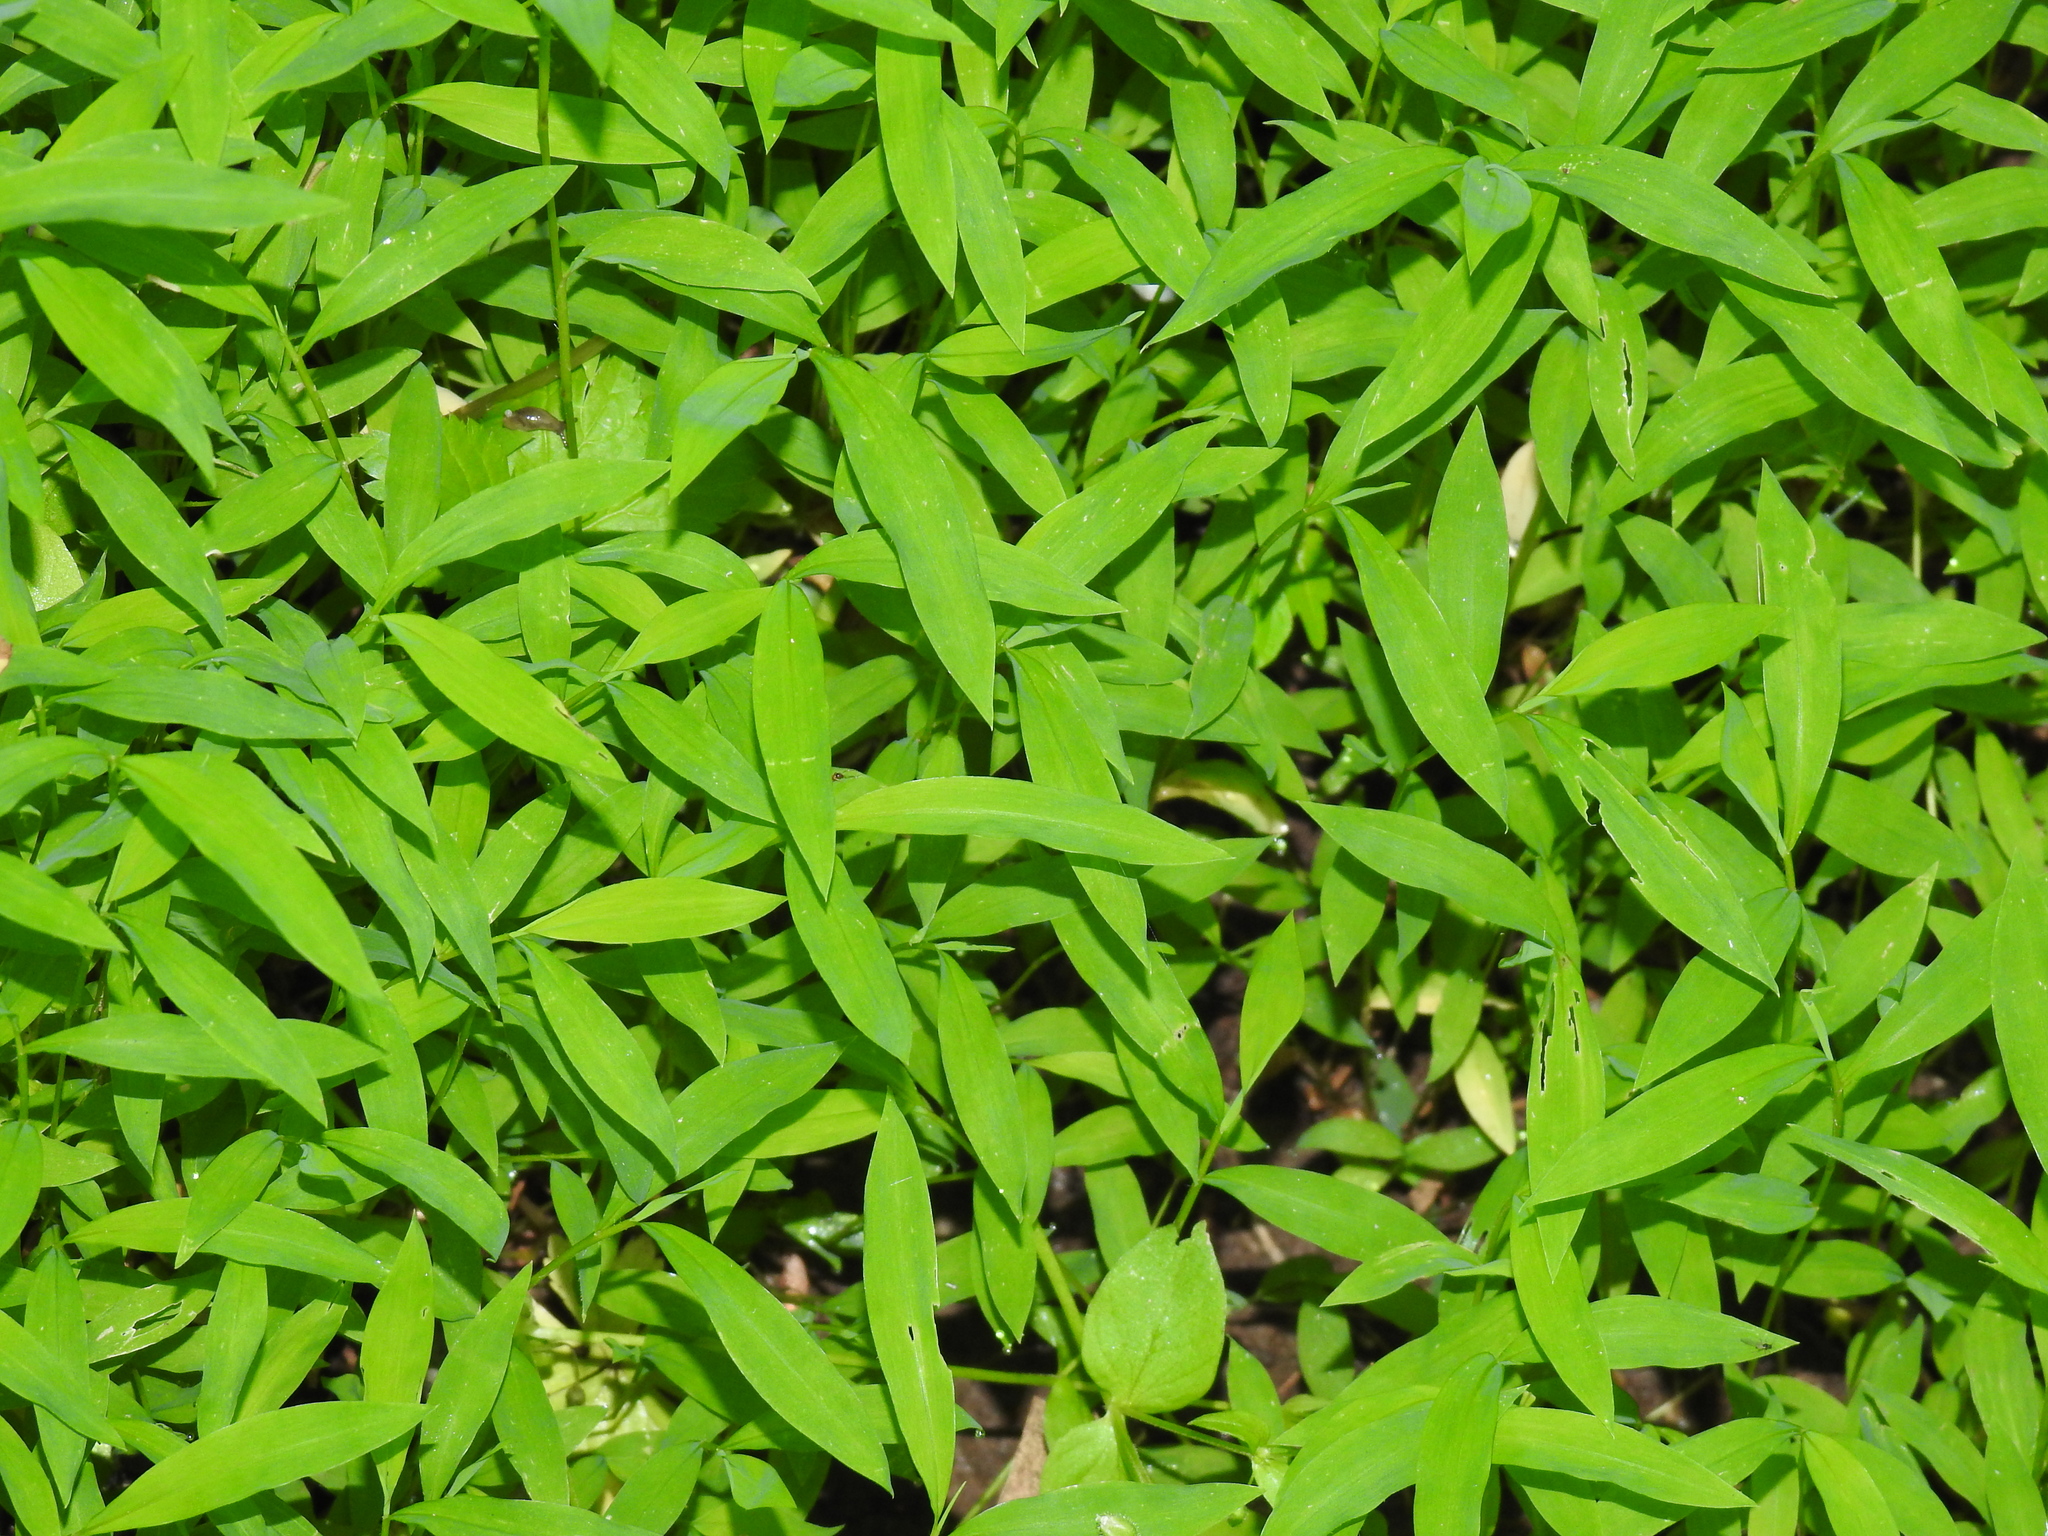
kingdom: Plantae
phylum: Tracheophyta
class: Liliopsida
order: Poales
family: Poaceae
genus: Microstegium
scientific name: Microstegium vimineum
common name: Japanese stiltgrass
